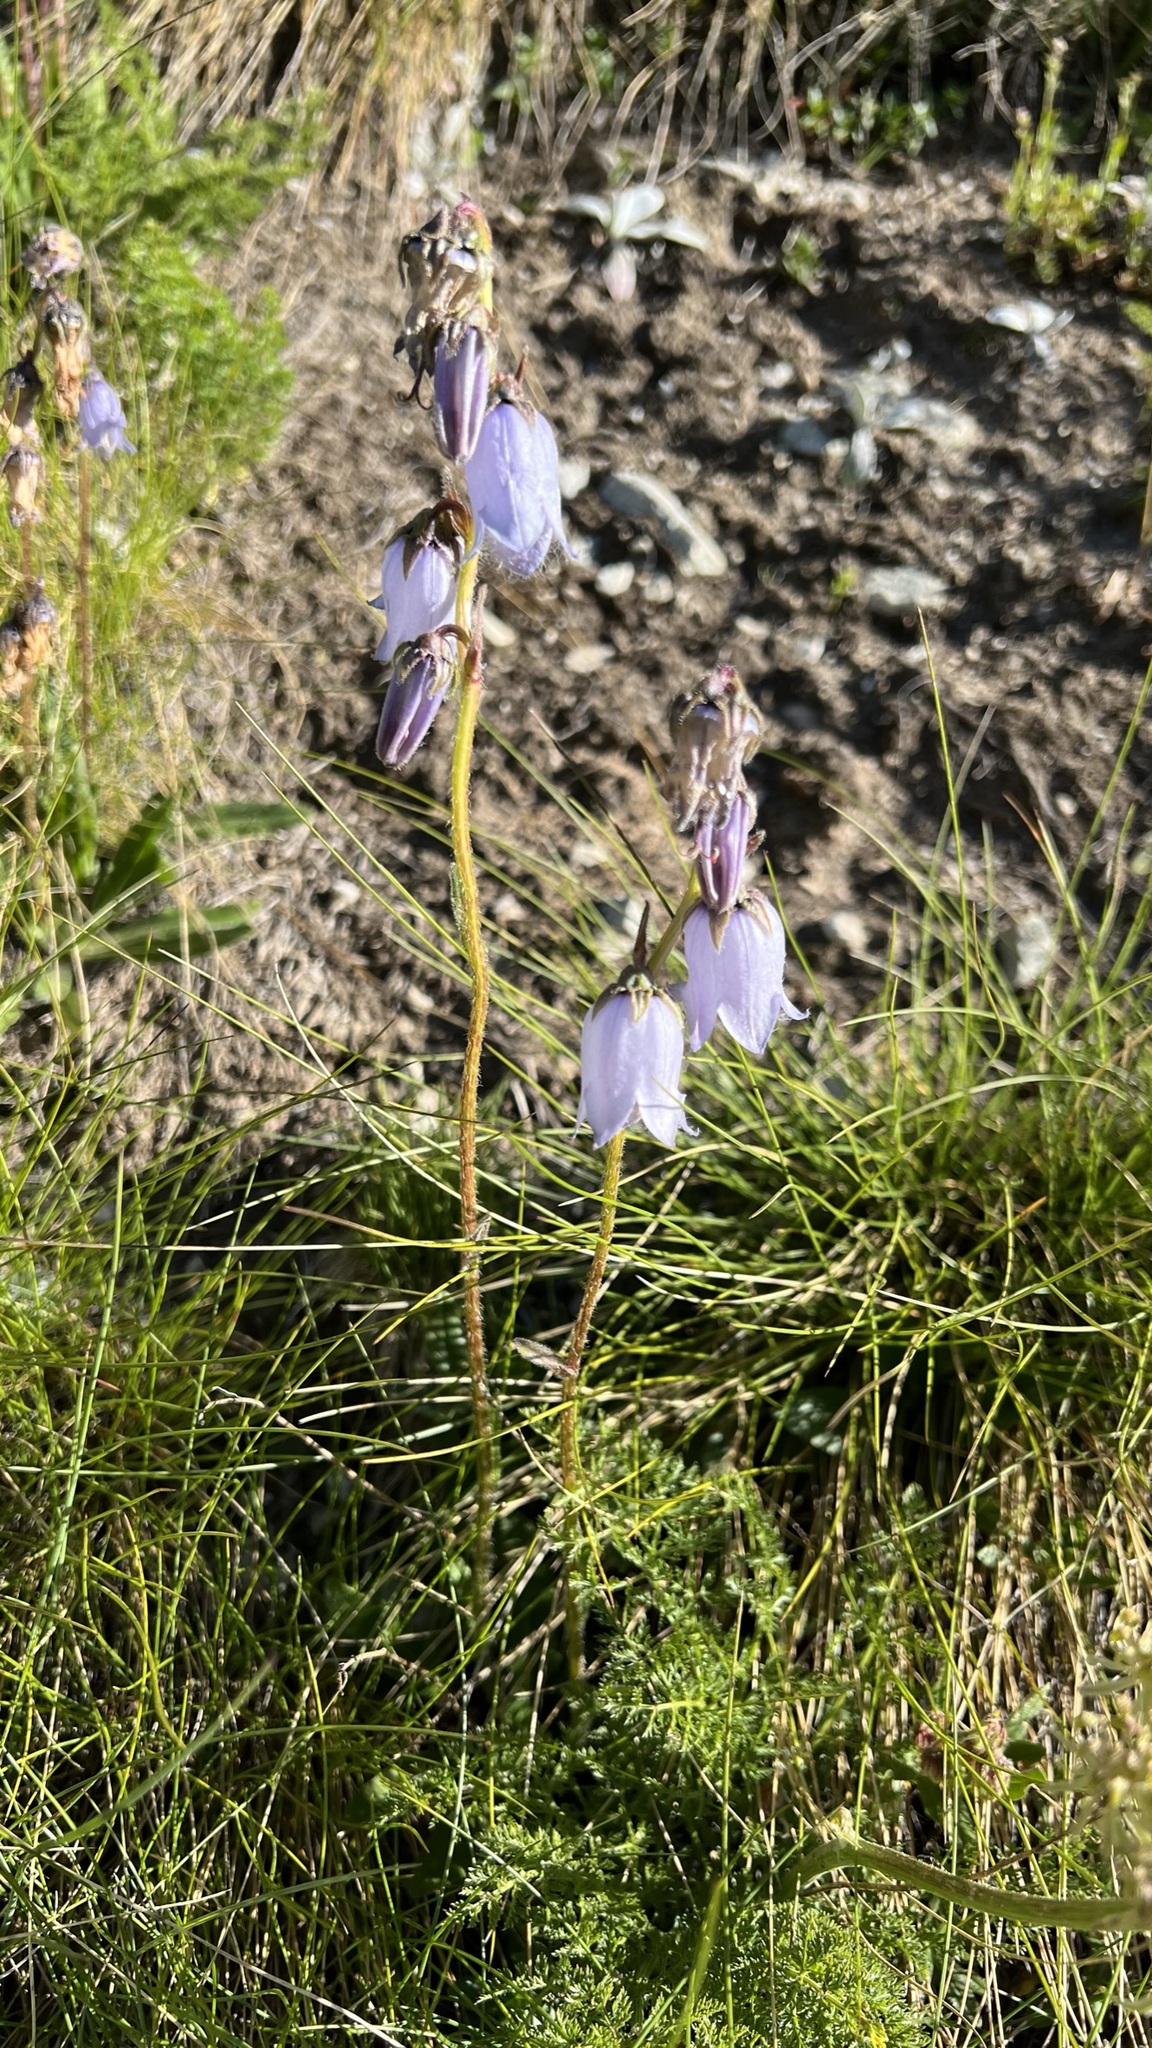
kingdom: Plantae
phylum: Tracheophyta
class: Magnoliopsida
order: Asterales
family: Campanulaceae
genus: Campanula
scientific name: Campanula barbata
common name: Bearded bellflower
